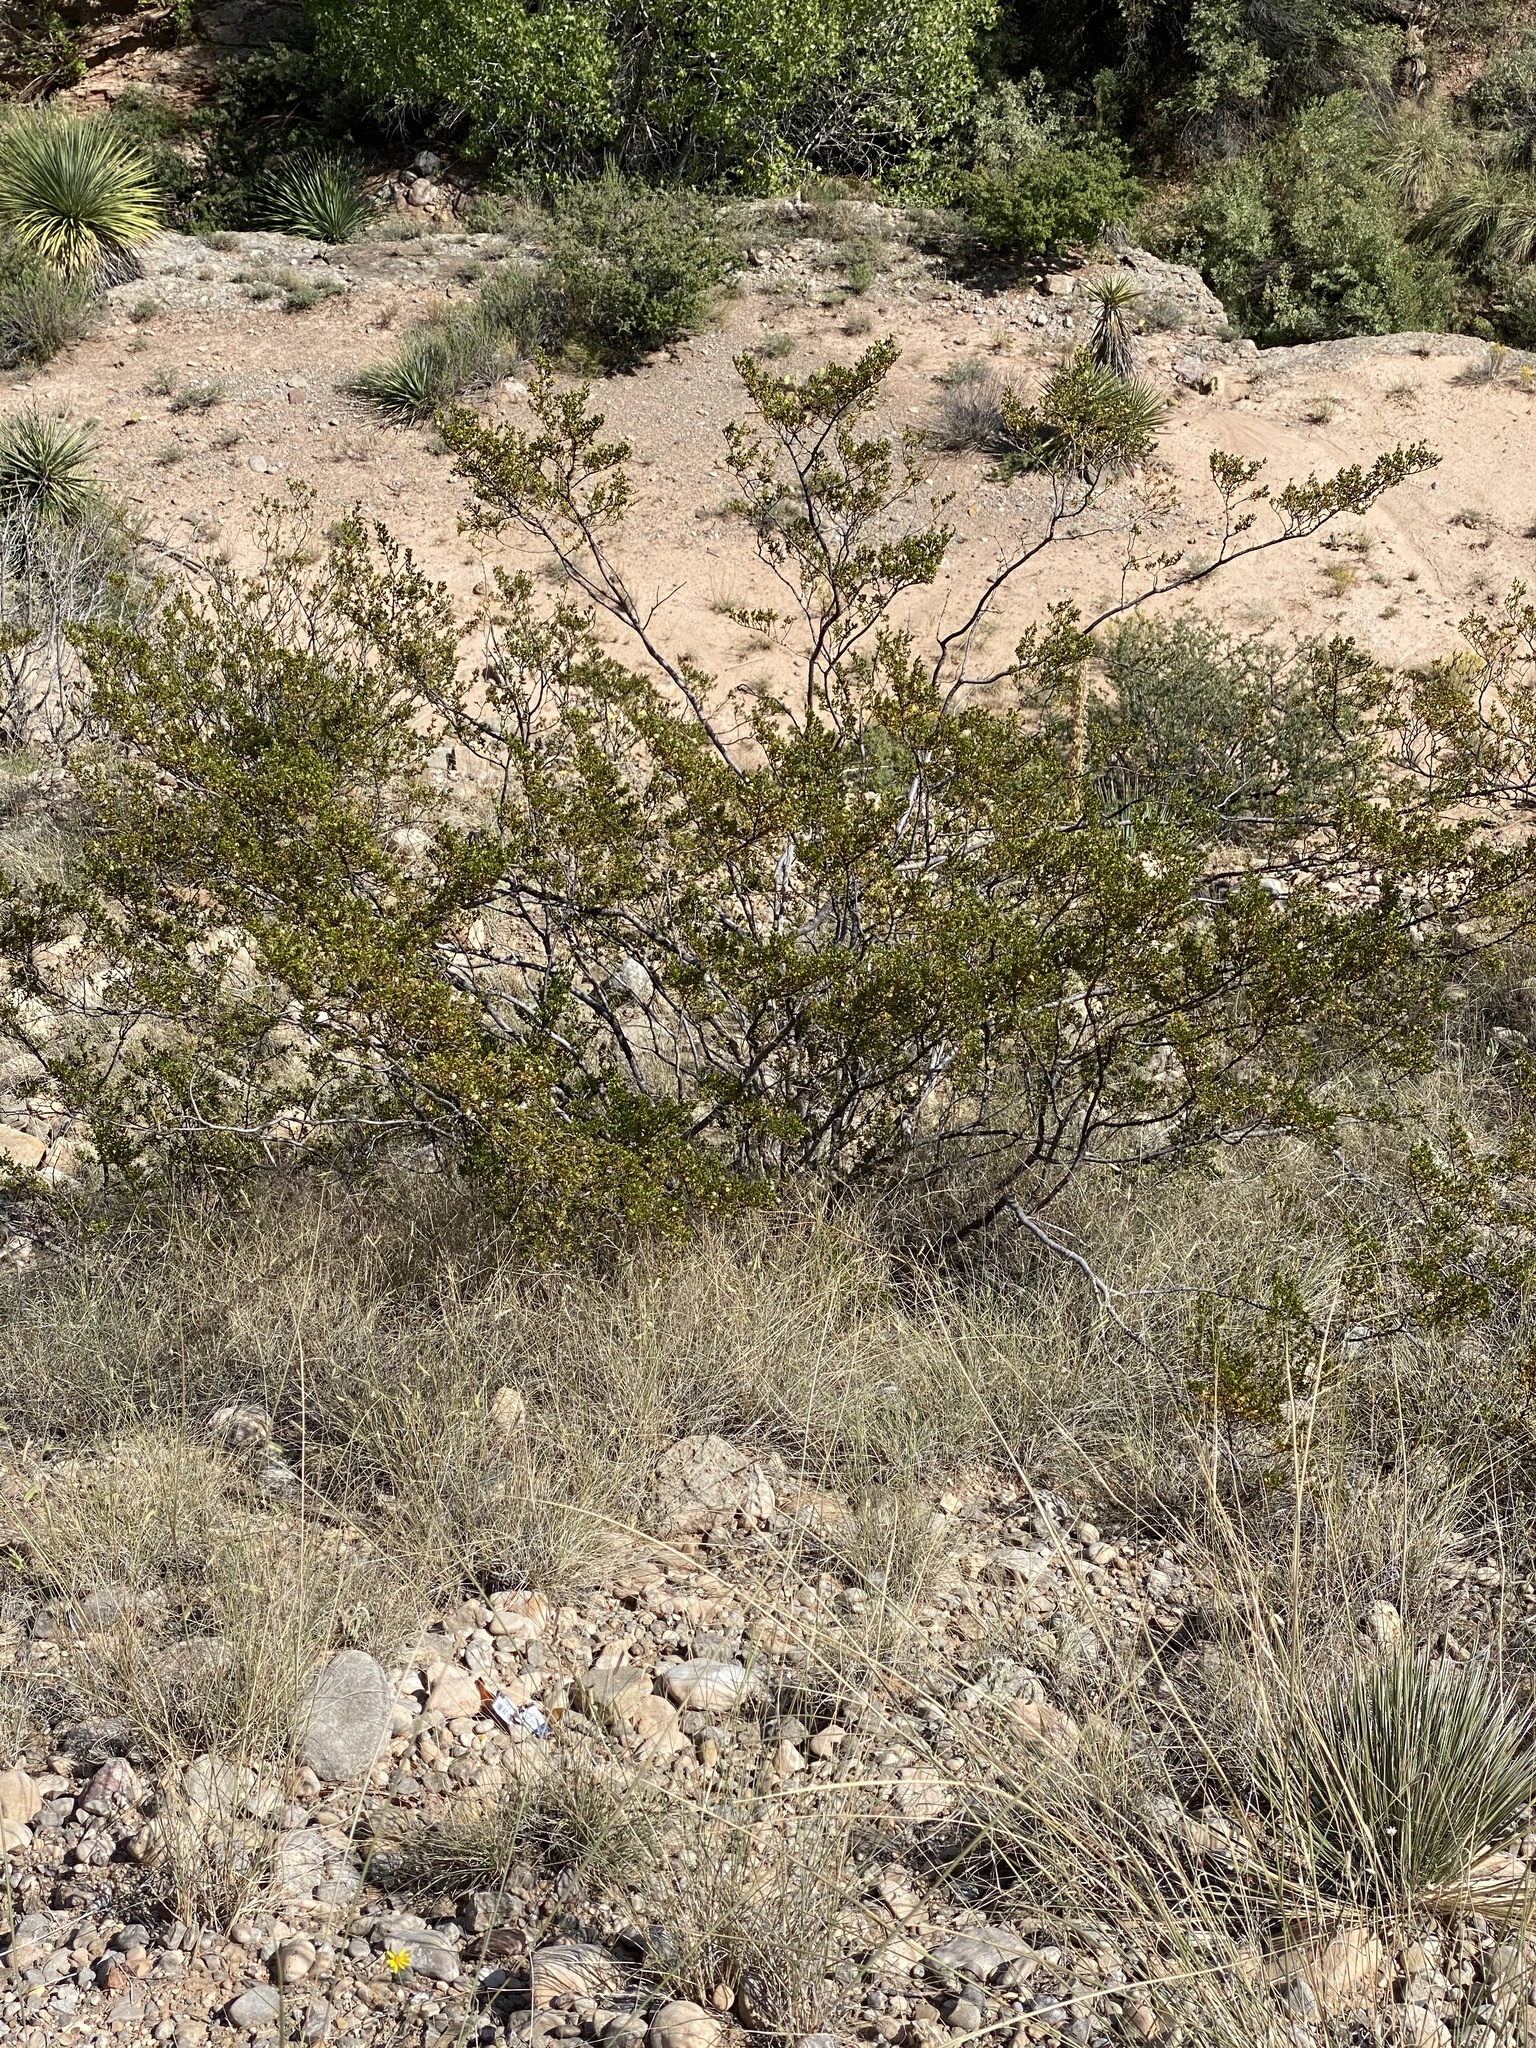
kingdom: Plantae
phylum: Tracheophyta
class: Magnoliopsida
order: Zygophyllales
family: Zygophyllaceae
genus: Larrea
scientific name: Larrea tridentata
